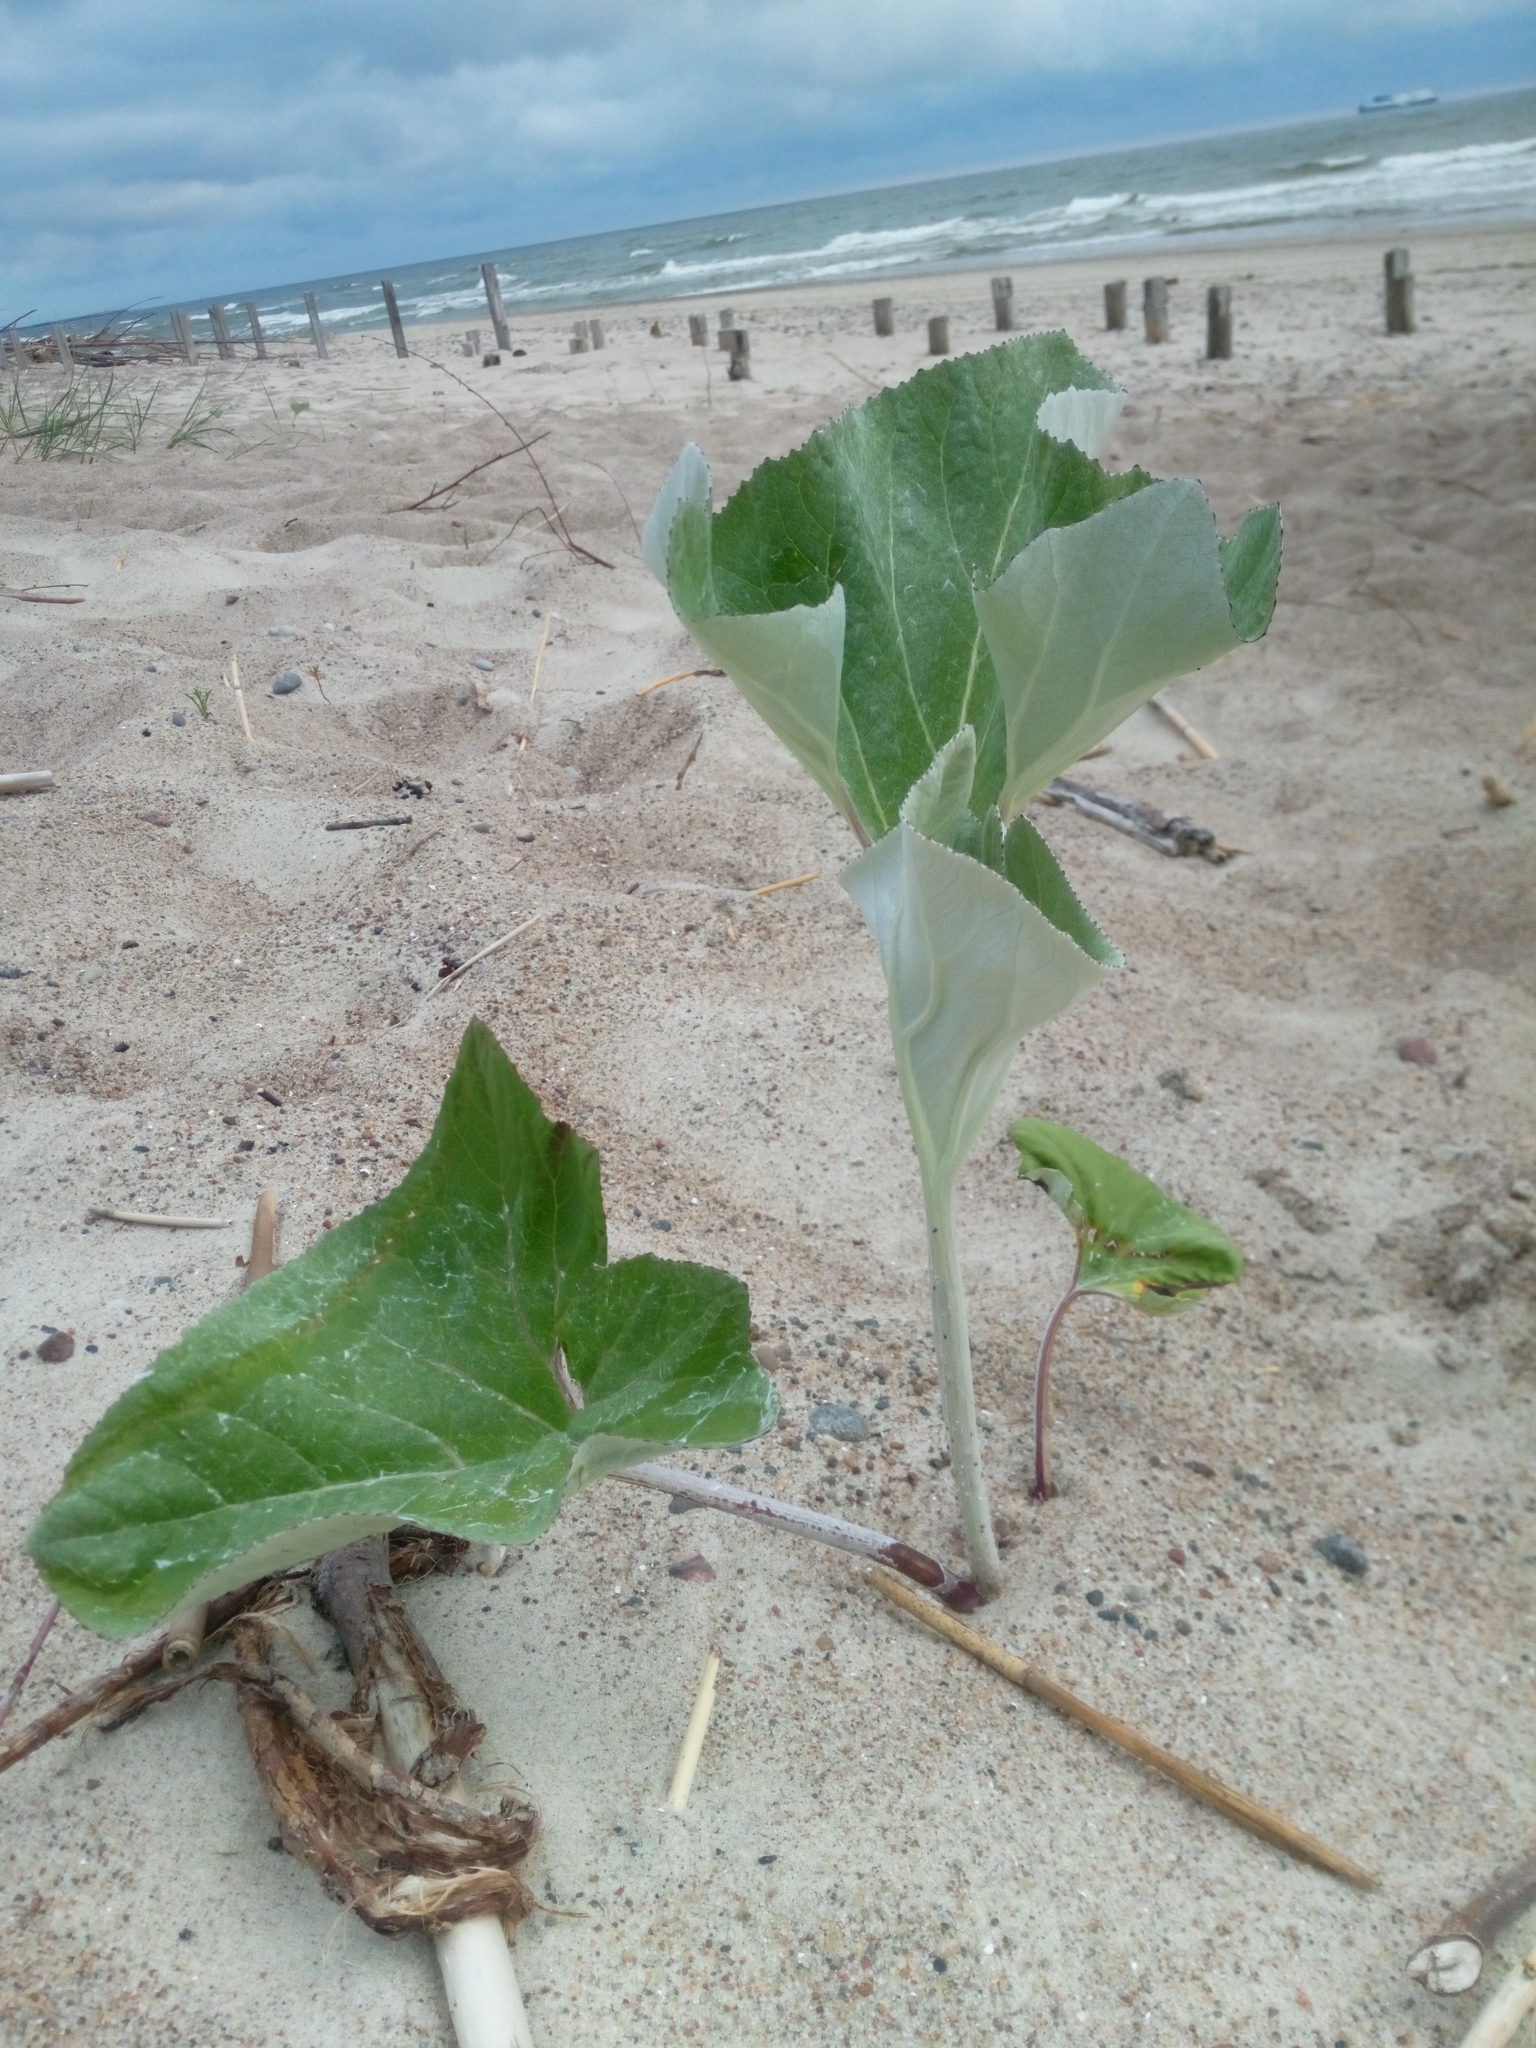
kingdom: Plantae
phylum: Tracheophyta
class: Magnoliopsida
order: Asterales
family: Asteraceae
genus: Petasites
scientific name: Petasites spurius
